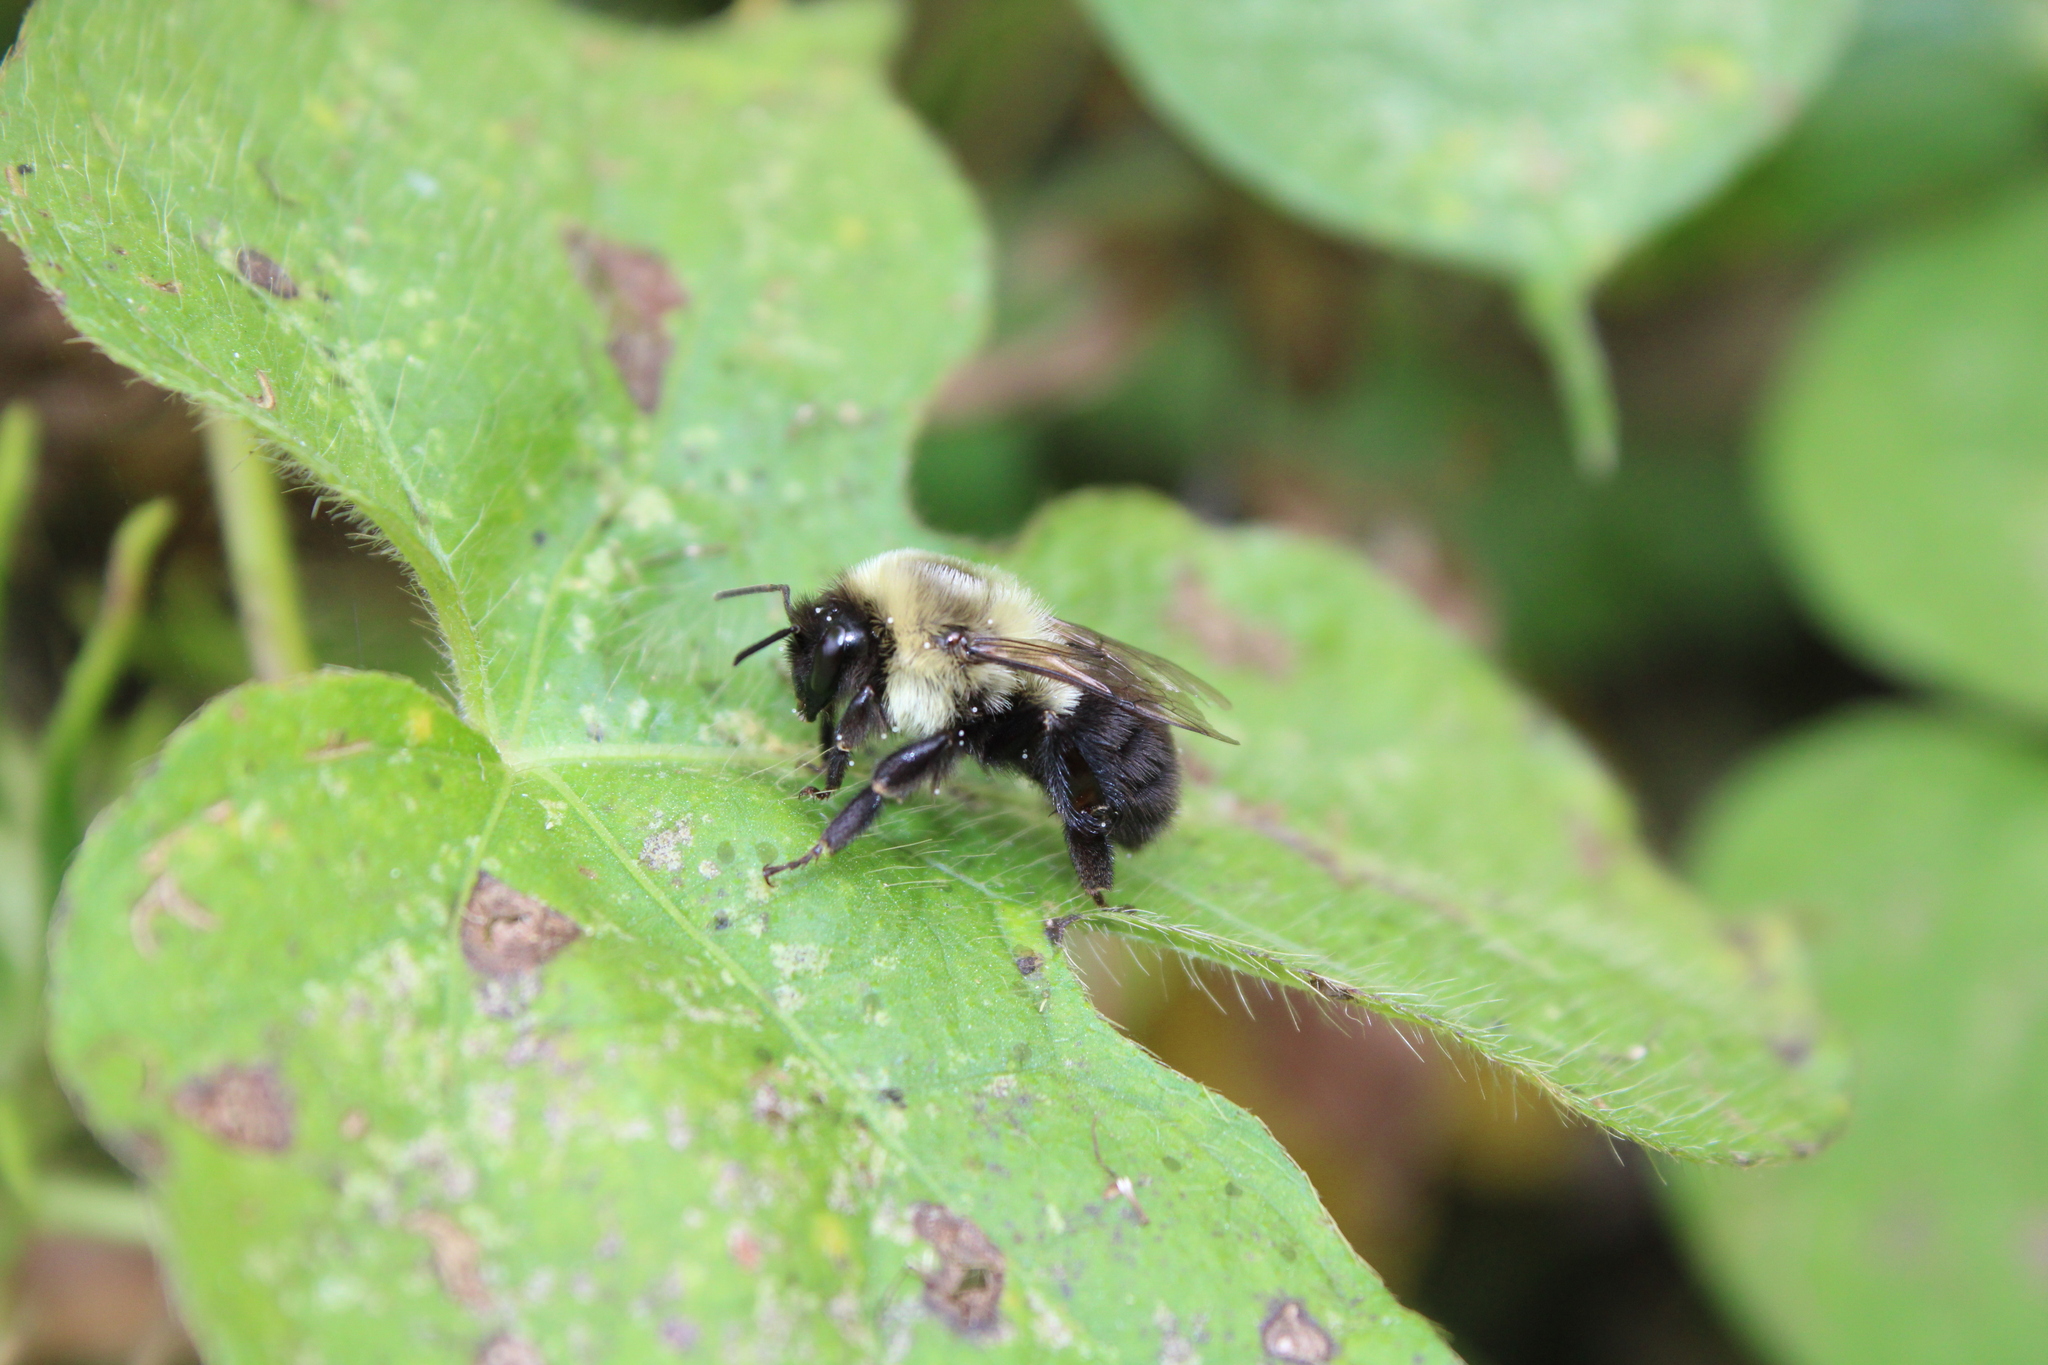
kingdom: Animalia
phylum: Arthropoda
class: Insecta
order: Hymenoptera
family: Apidae
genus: Bombus
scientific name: Bombus impatiens
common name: Common eastern bumble bee
